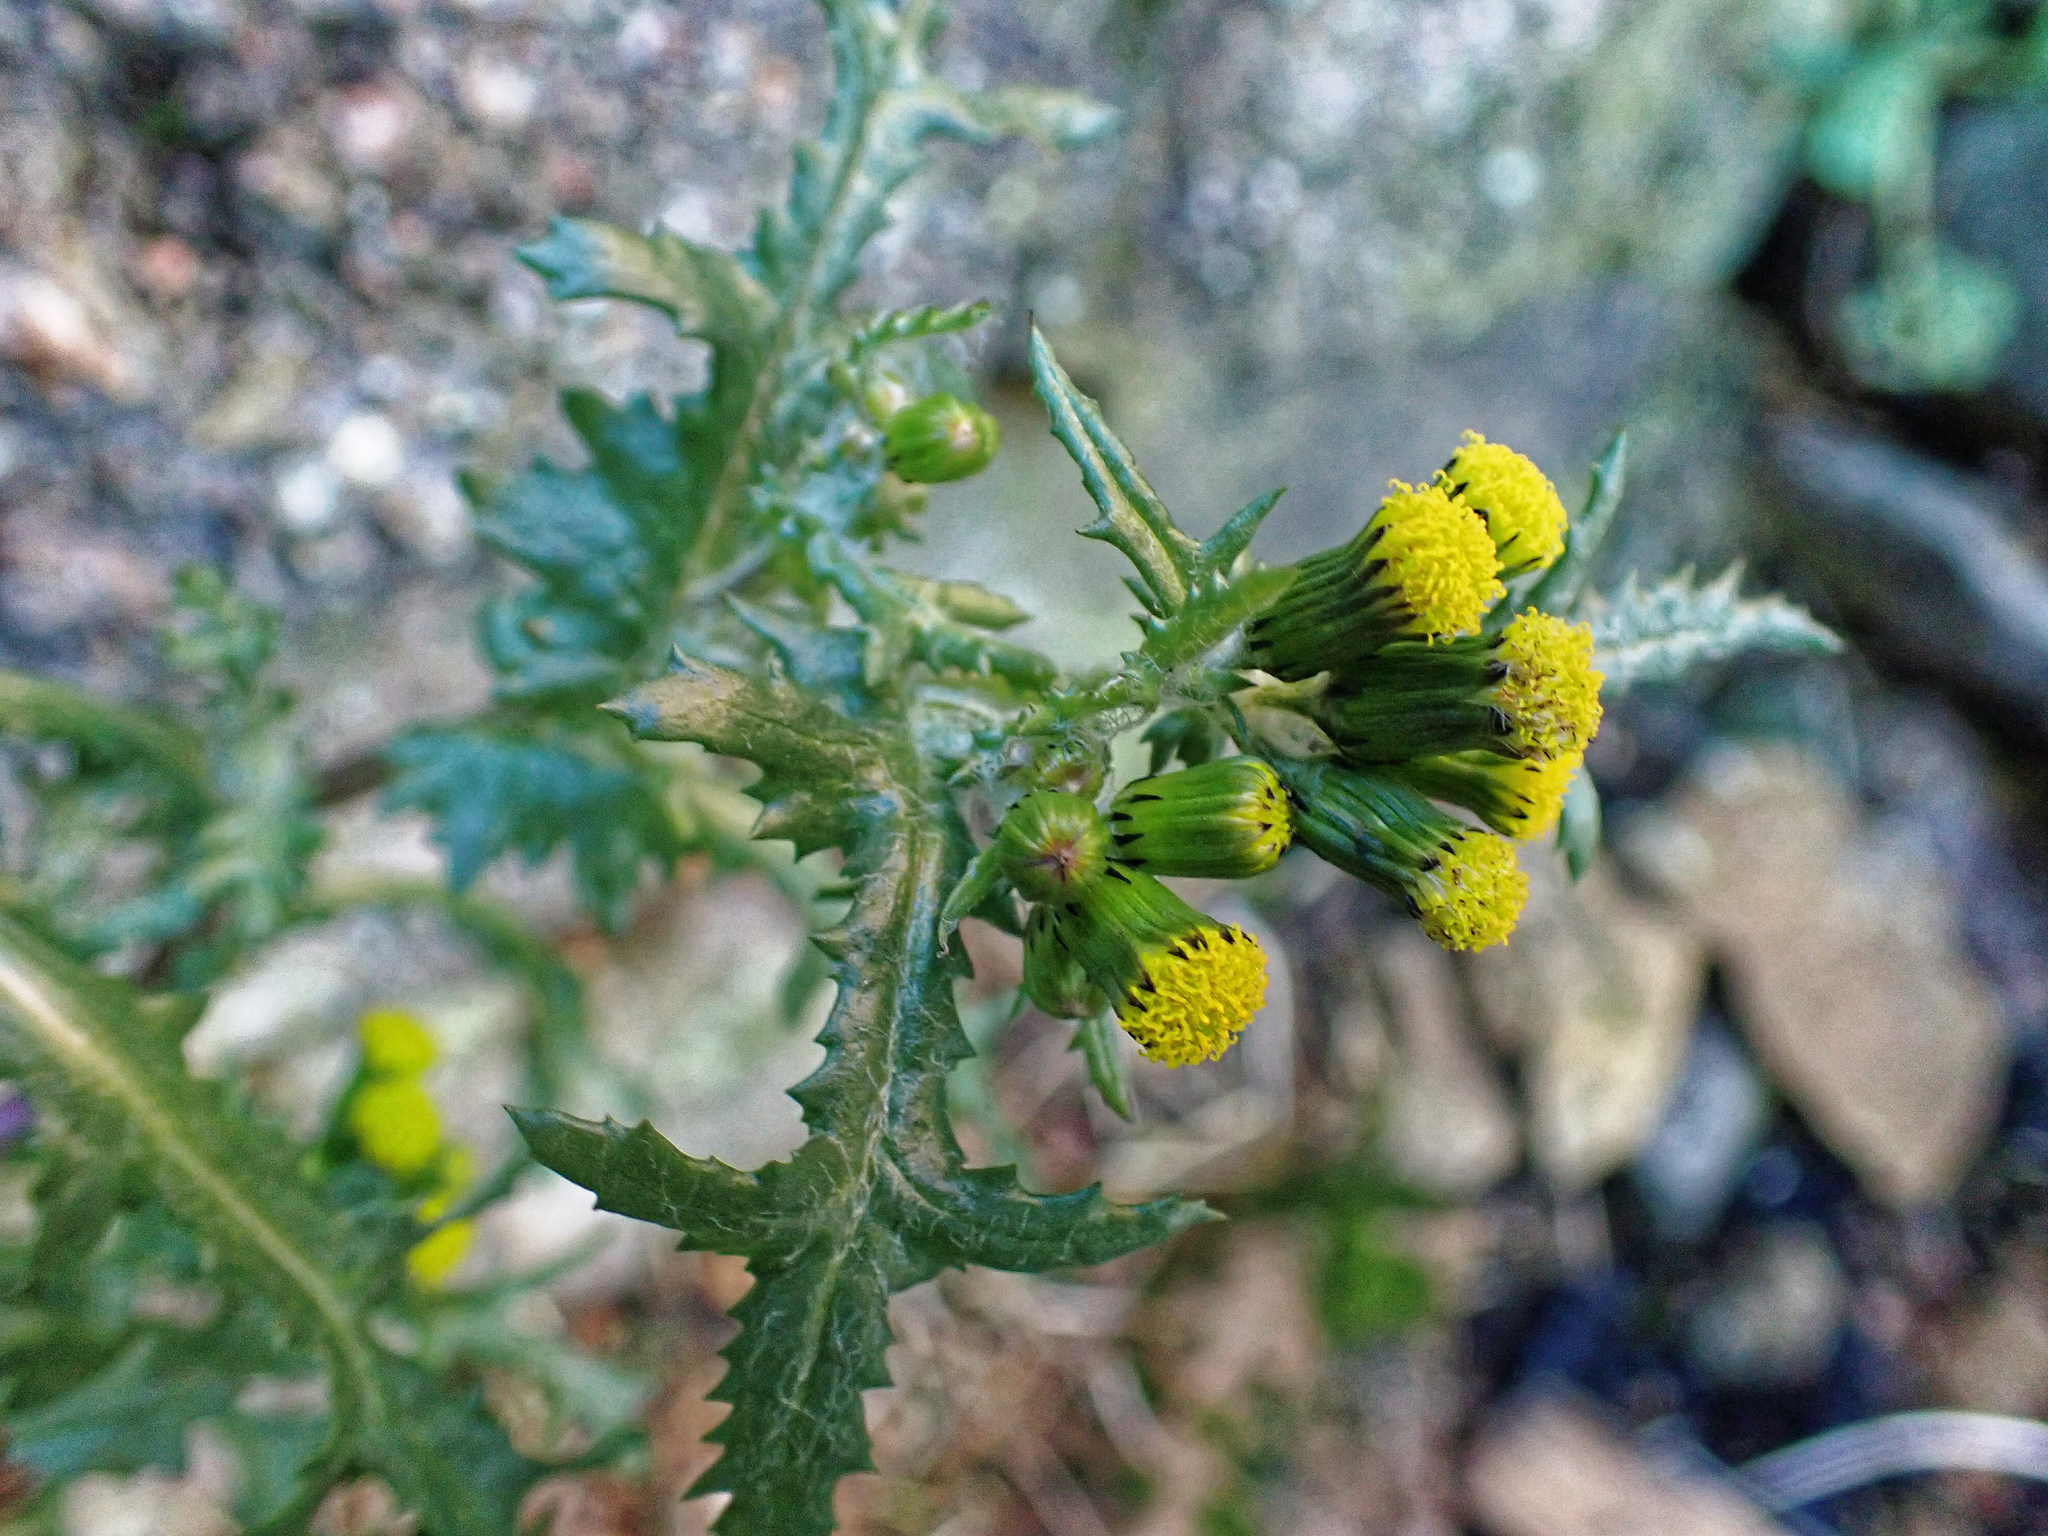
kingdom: Plantae
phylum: Tracheophyta
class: Magnoliopsida
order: Asterales
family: Asteraceae
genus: Senecio
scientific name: Senecio vulgaris
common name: Old-man-in-the-spring
